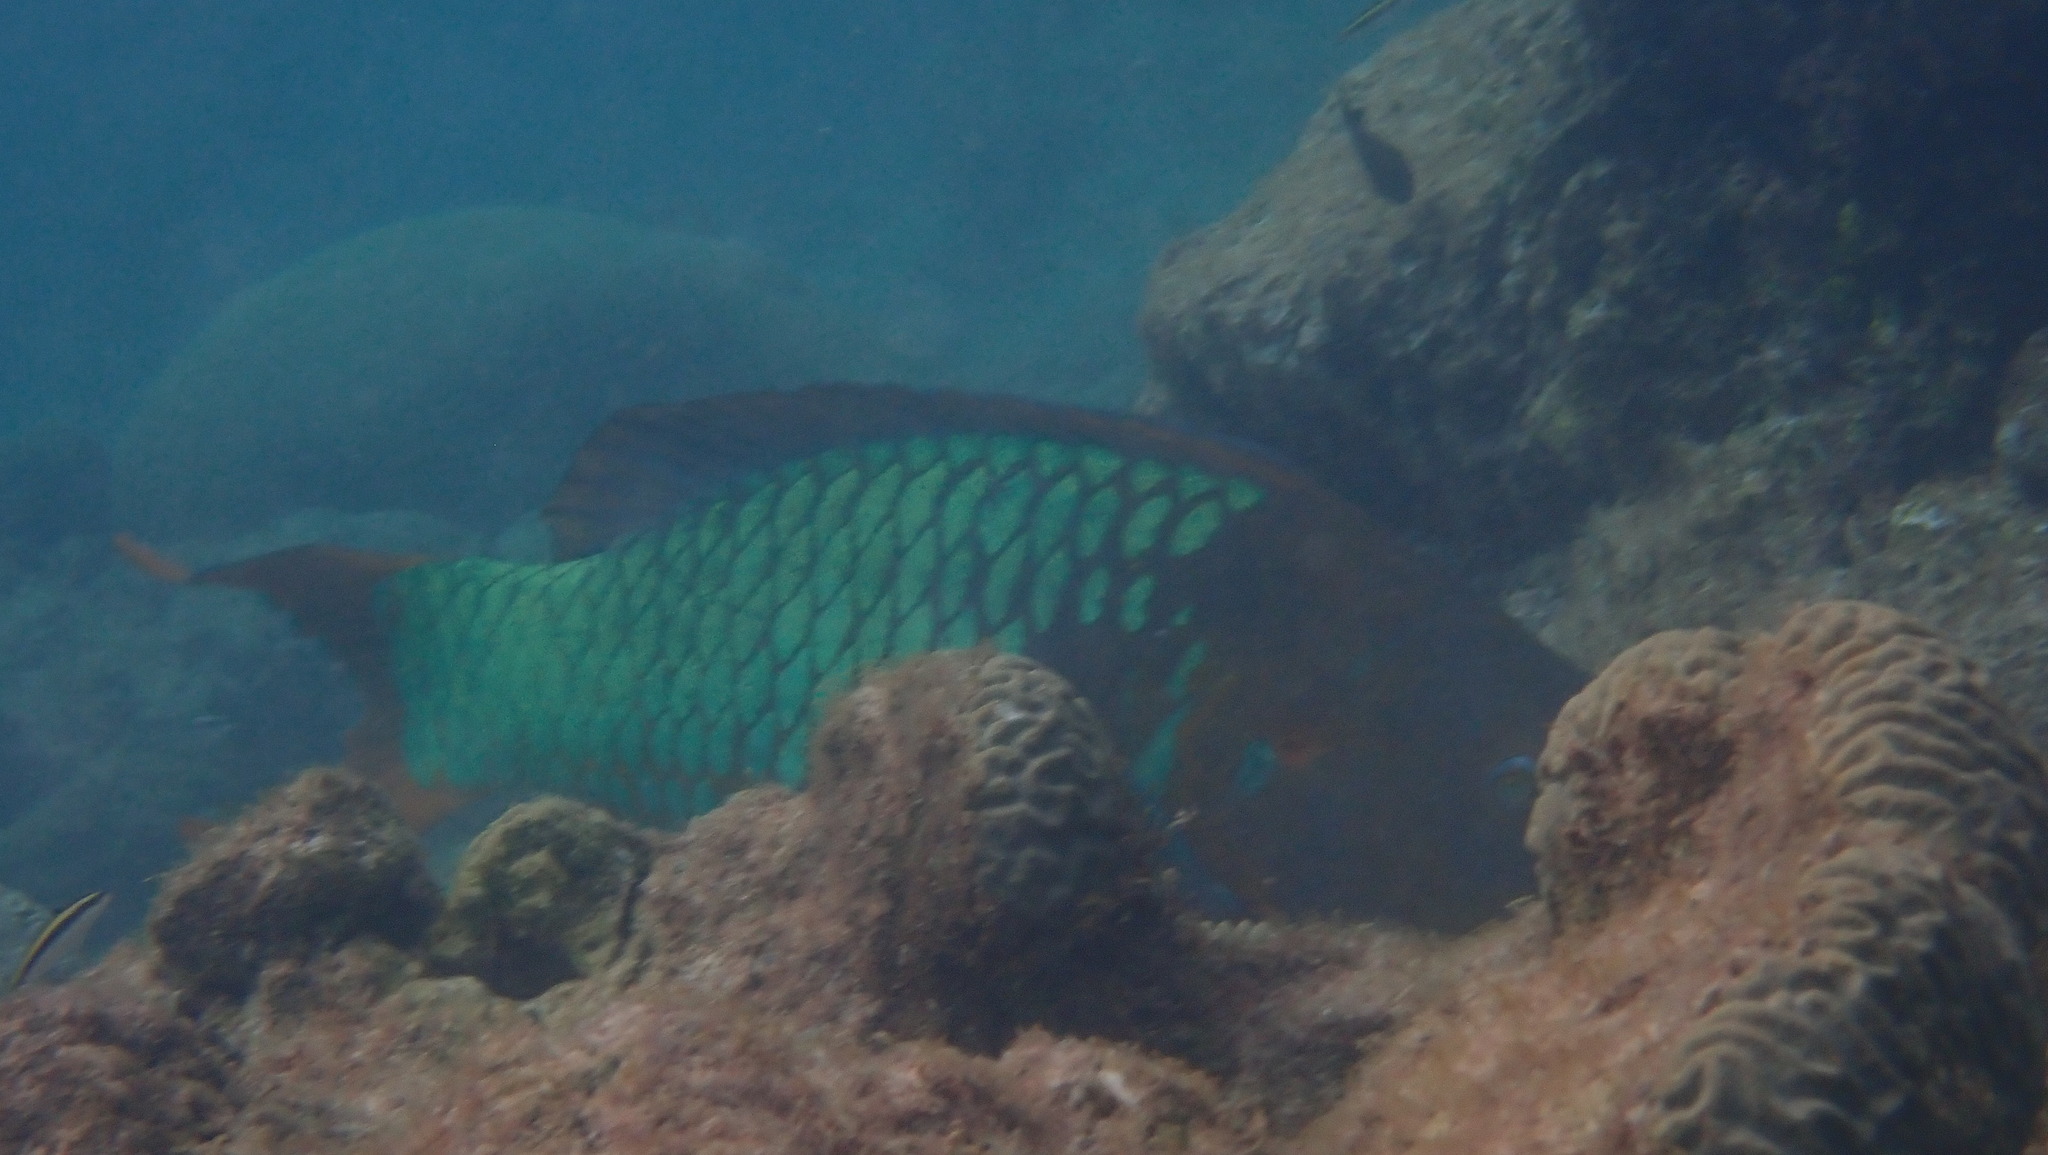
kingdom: Animalia
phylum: Chordata
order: Perciformes
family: Scaridae
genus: Scarus
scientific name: Scarus guacamaia
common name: Rainbow parrotfish
